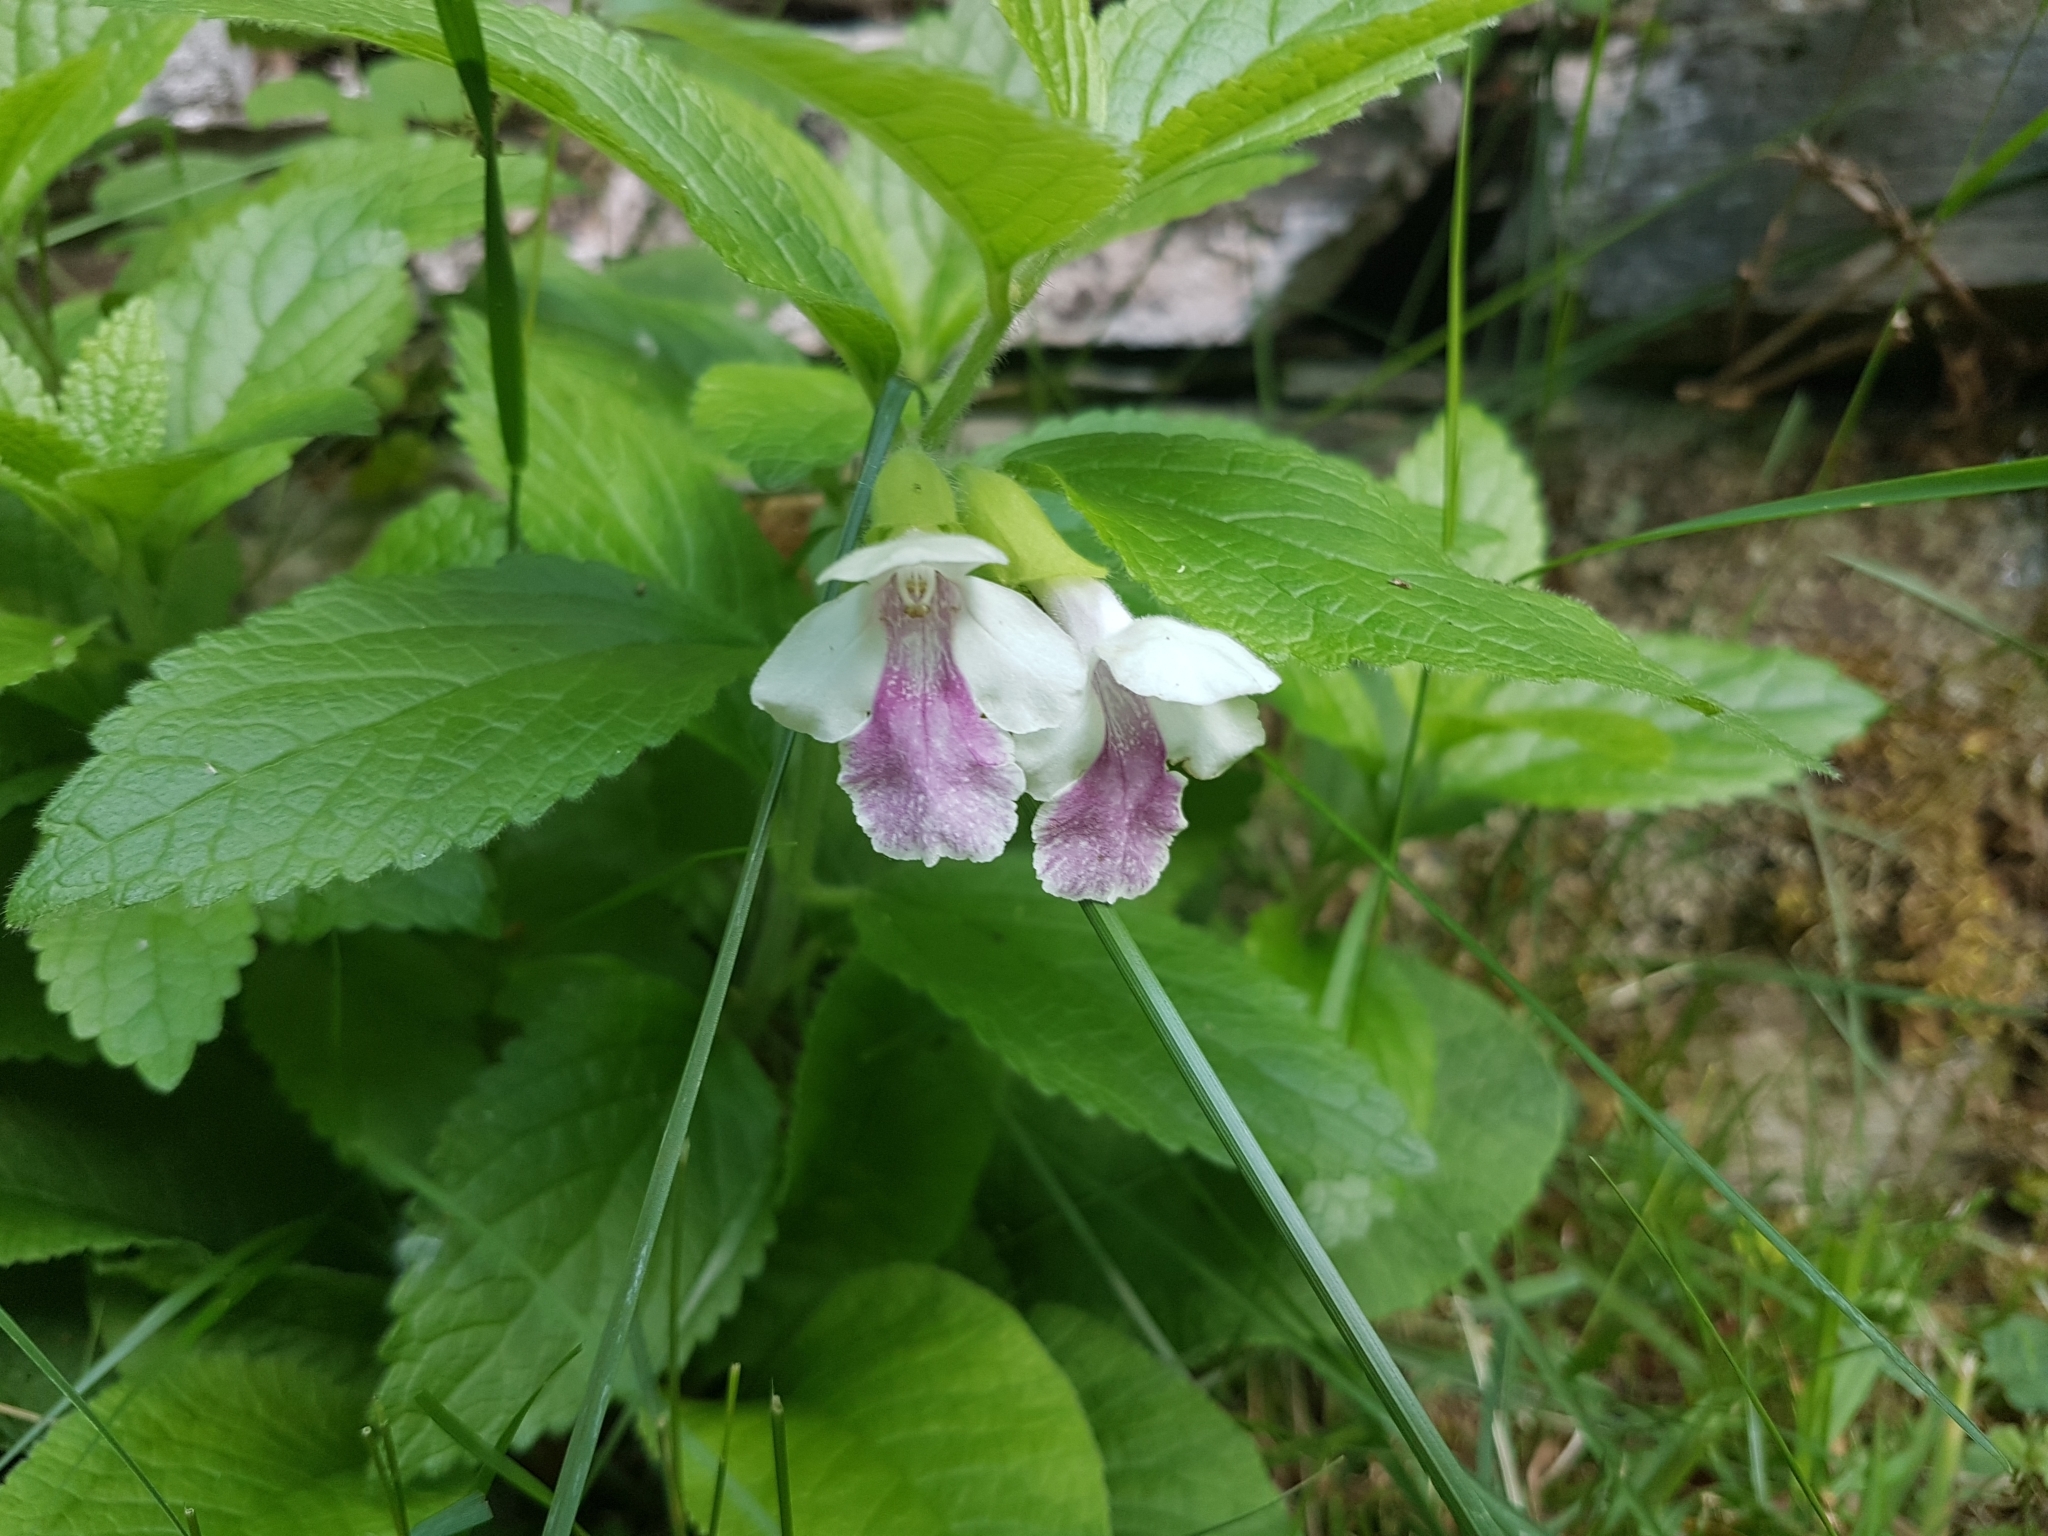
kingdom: Plantae
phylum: Tracheophyta
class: Magnoliopsida
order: Lamiales
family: Lamiaceae
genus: Melittis
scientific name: Melittis melissophyllum
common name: Bastard balm
